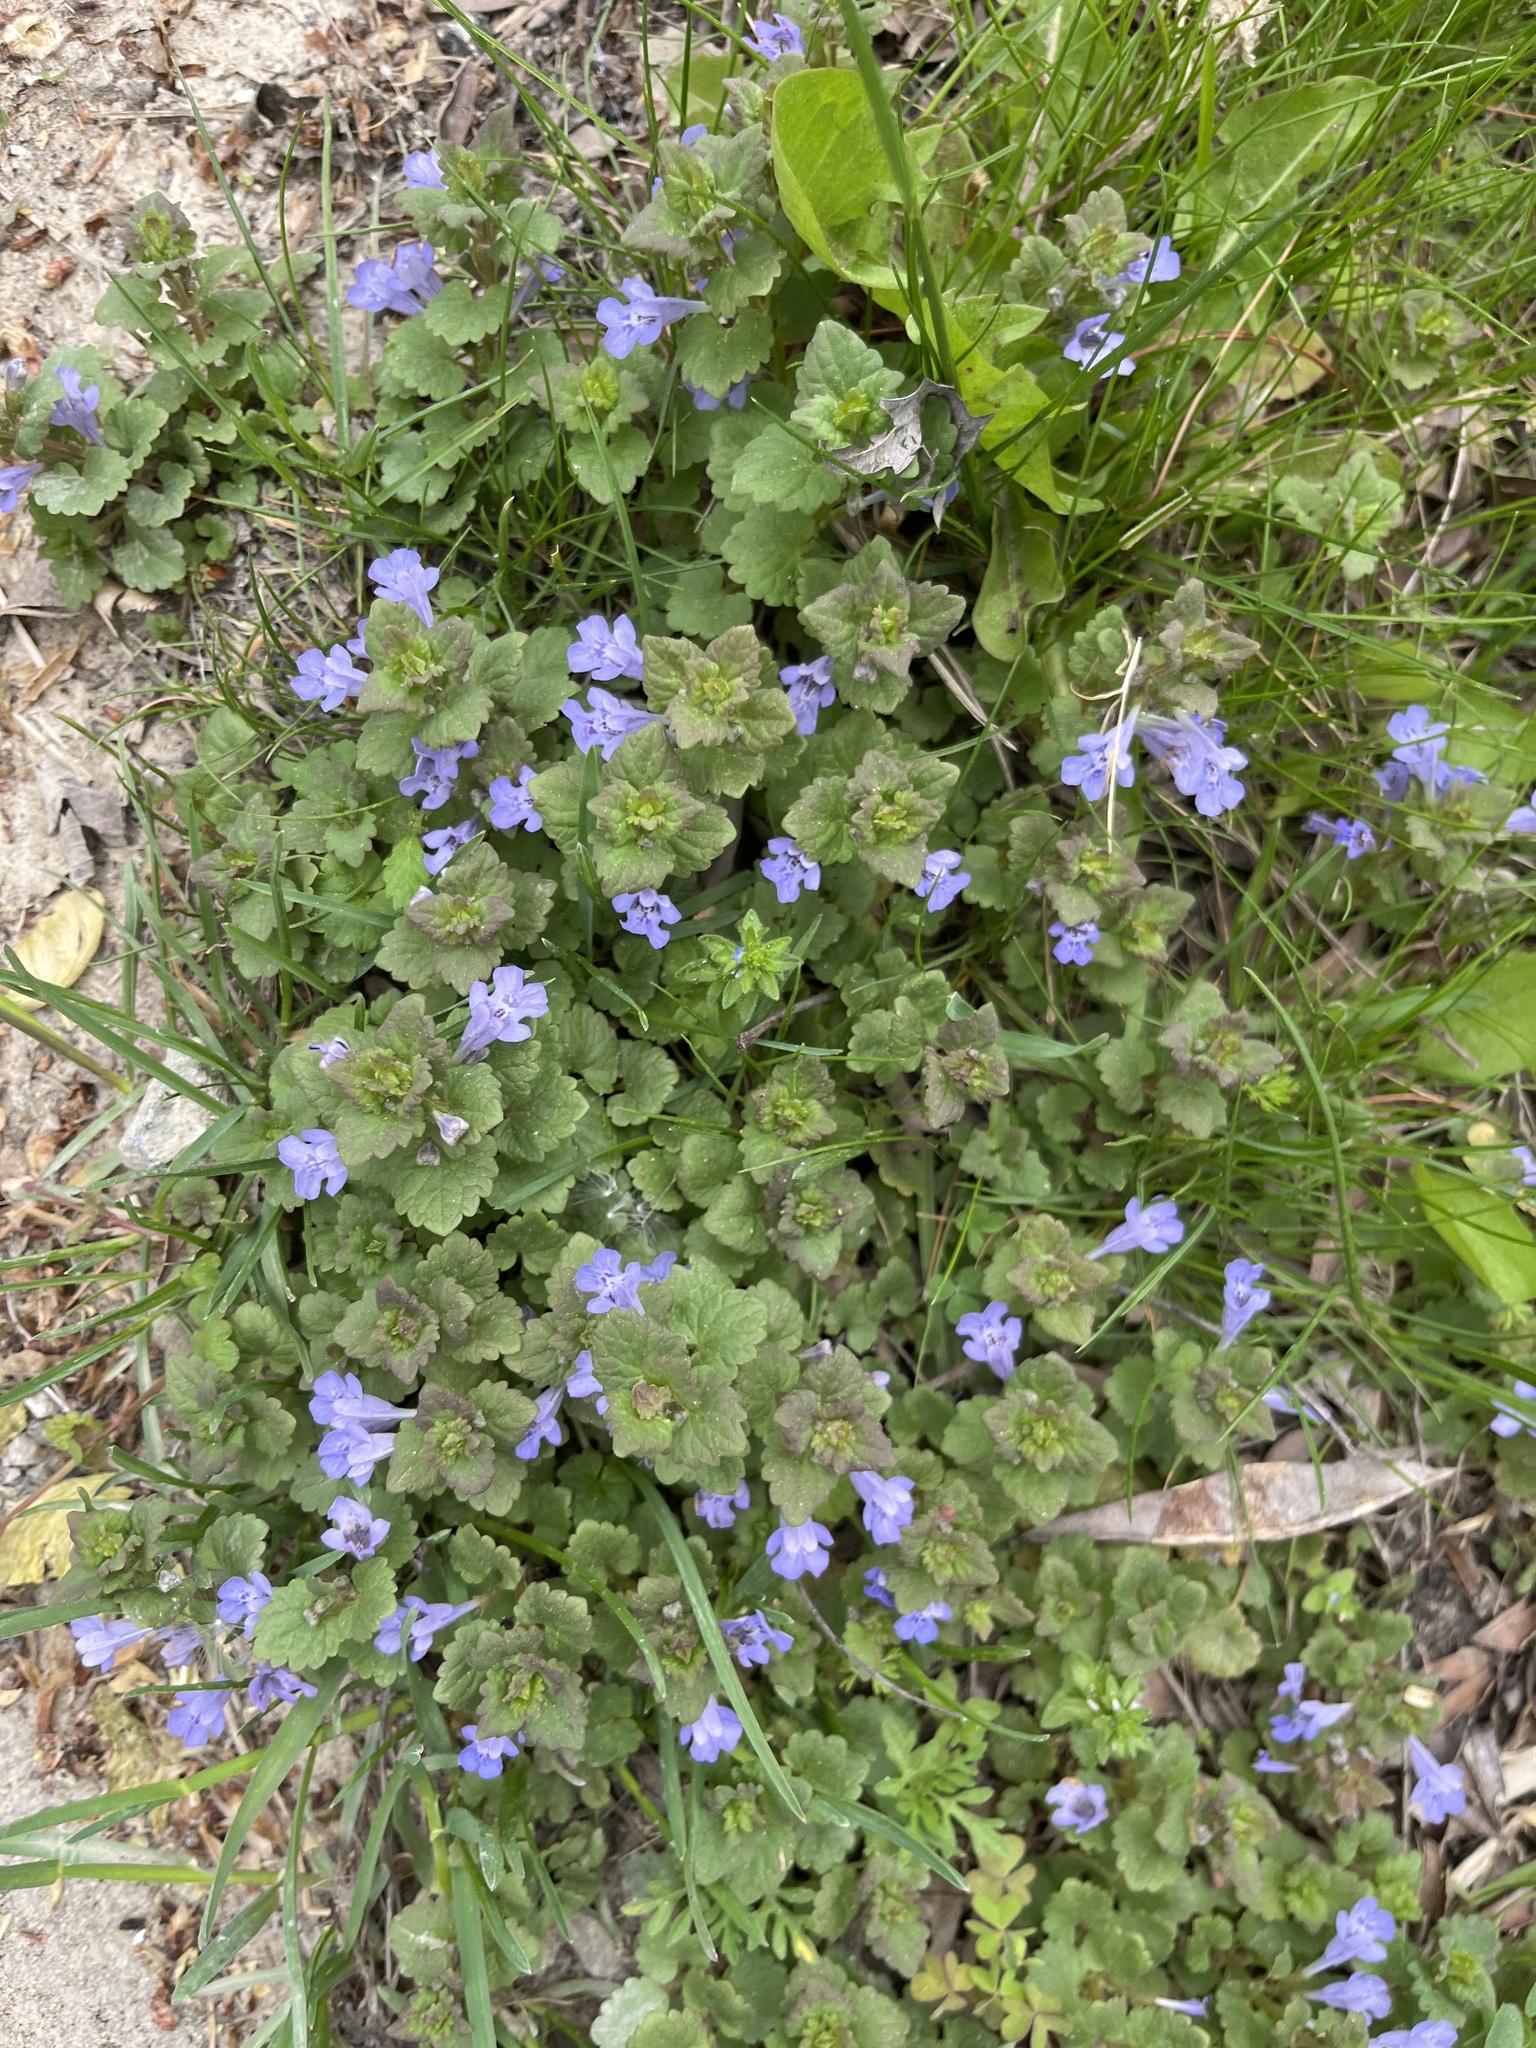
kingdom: Plantae
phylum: Tracheophyta
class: Magnoliopsida
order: Lamiales
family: Lamiaceae
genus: Glechoma
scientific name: Glechoma hederacea
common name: Ground ivy
